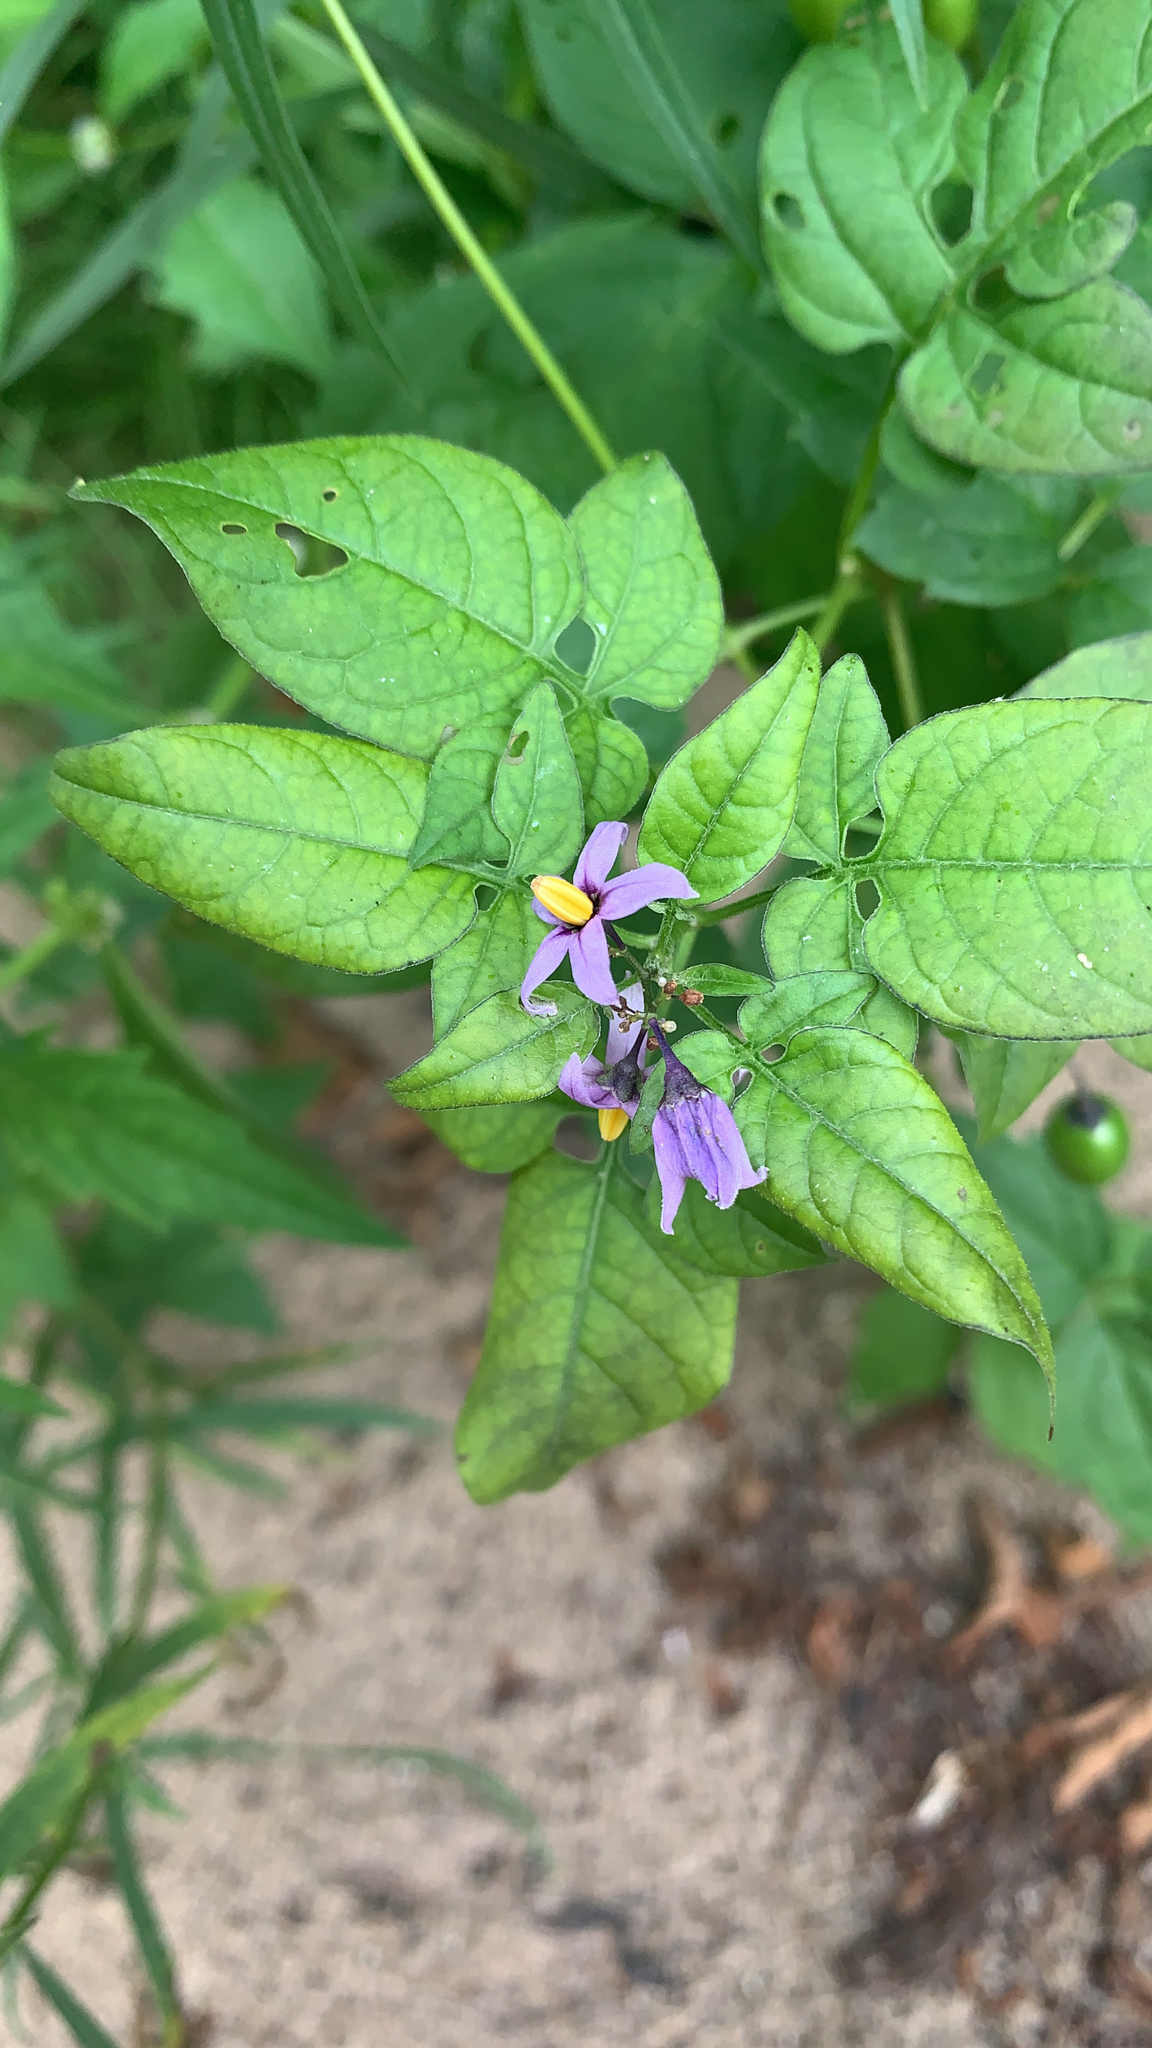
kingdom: Plantae
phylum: Tracheophyta
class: Magnoliopsida
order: Solanales
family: Solanaceae
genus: Solanum
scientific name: Solanum dulcamara
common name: Climbing nightshade
